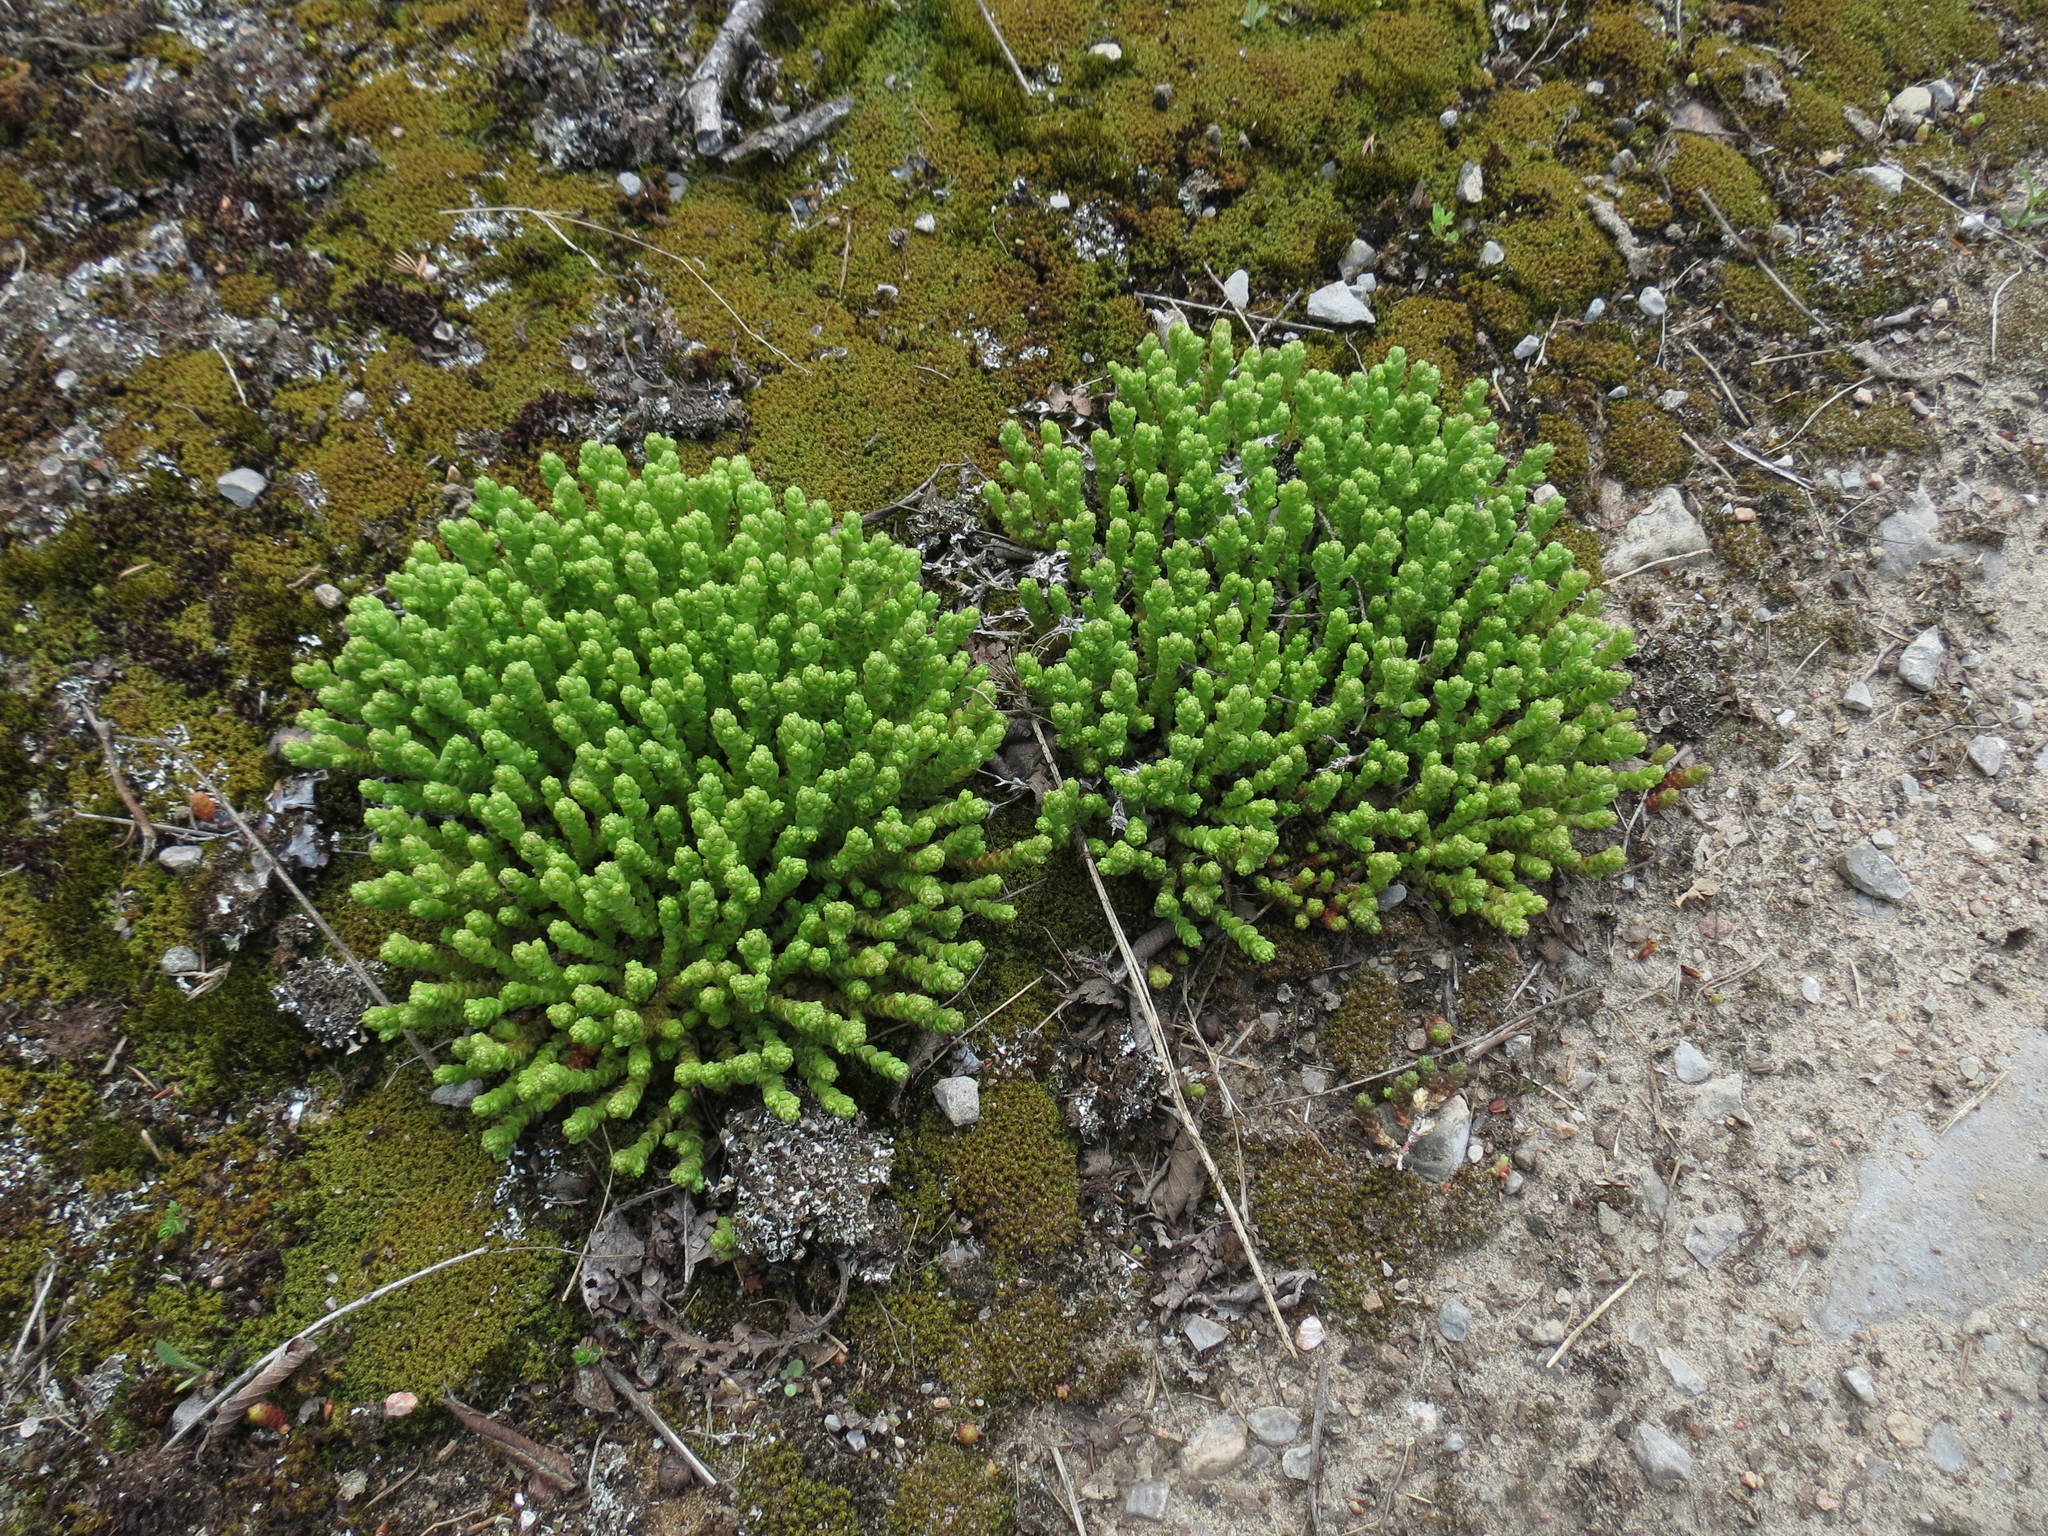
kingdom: Plantae
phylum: Tracheophyta
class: Magnoliopsida
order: Saxifragales
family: Crassulaceae
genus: Sedum
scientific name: Sedum acre
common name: Biting stonecrop
